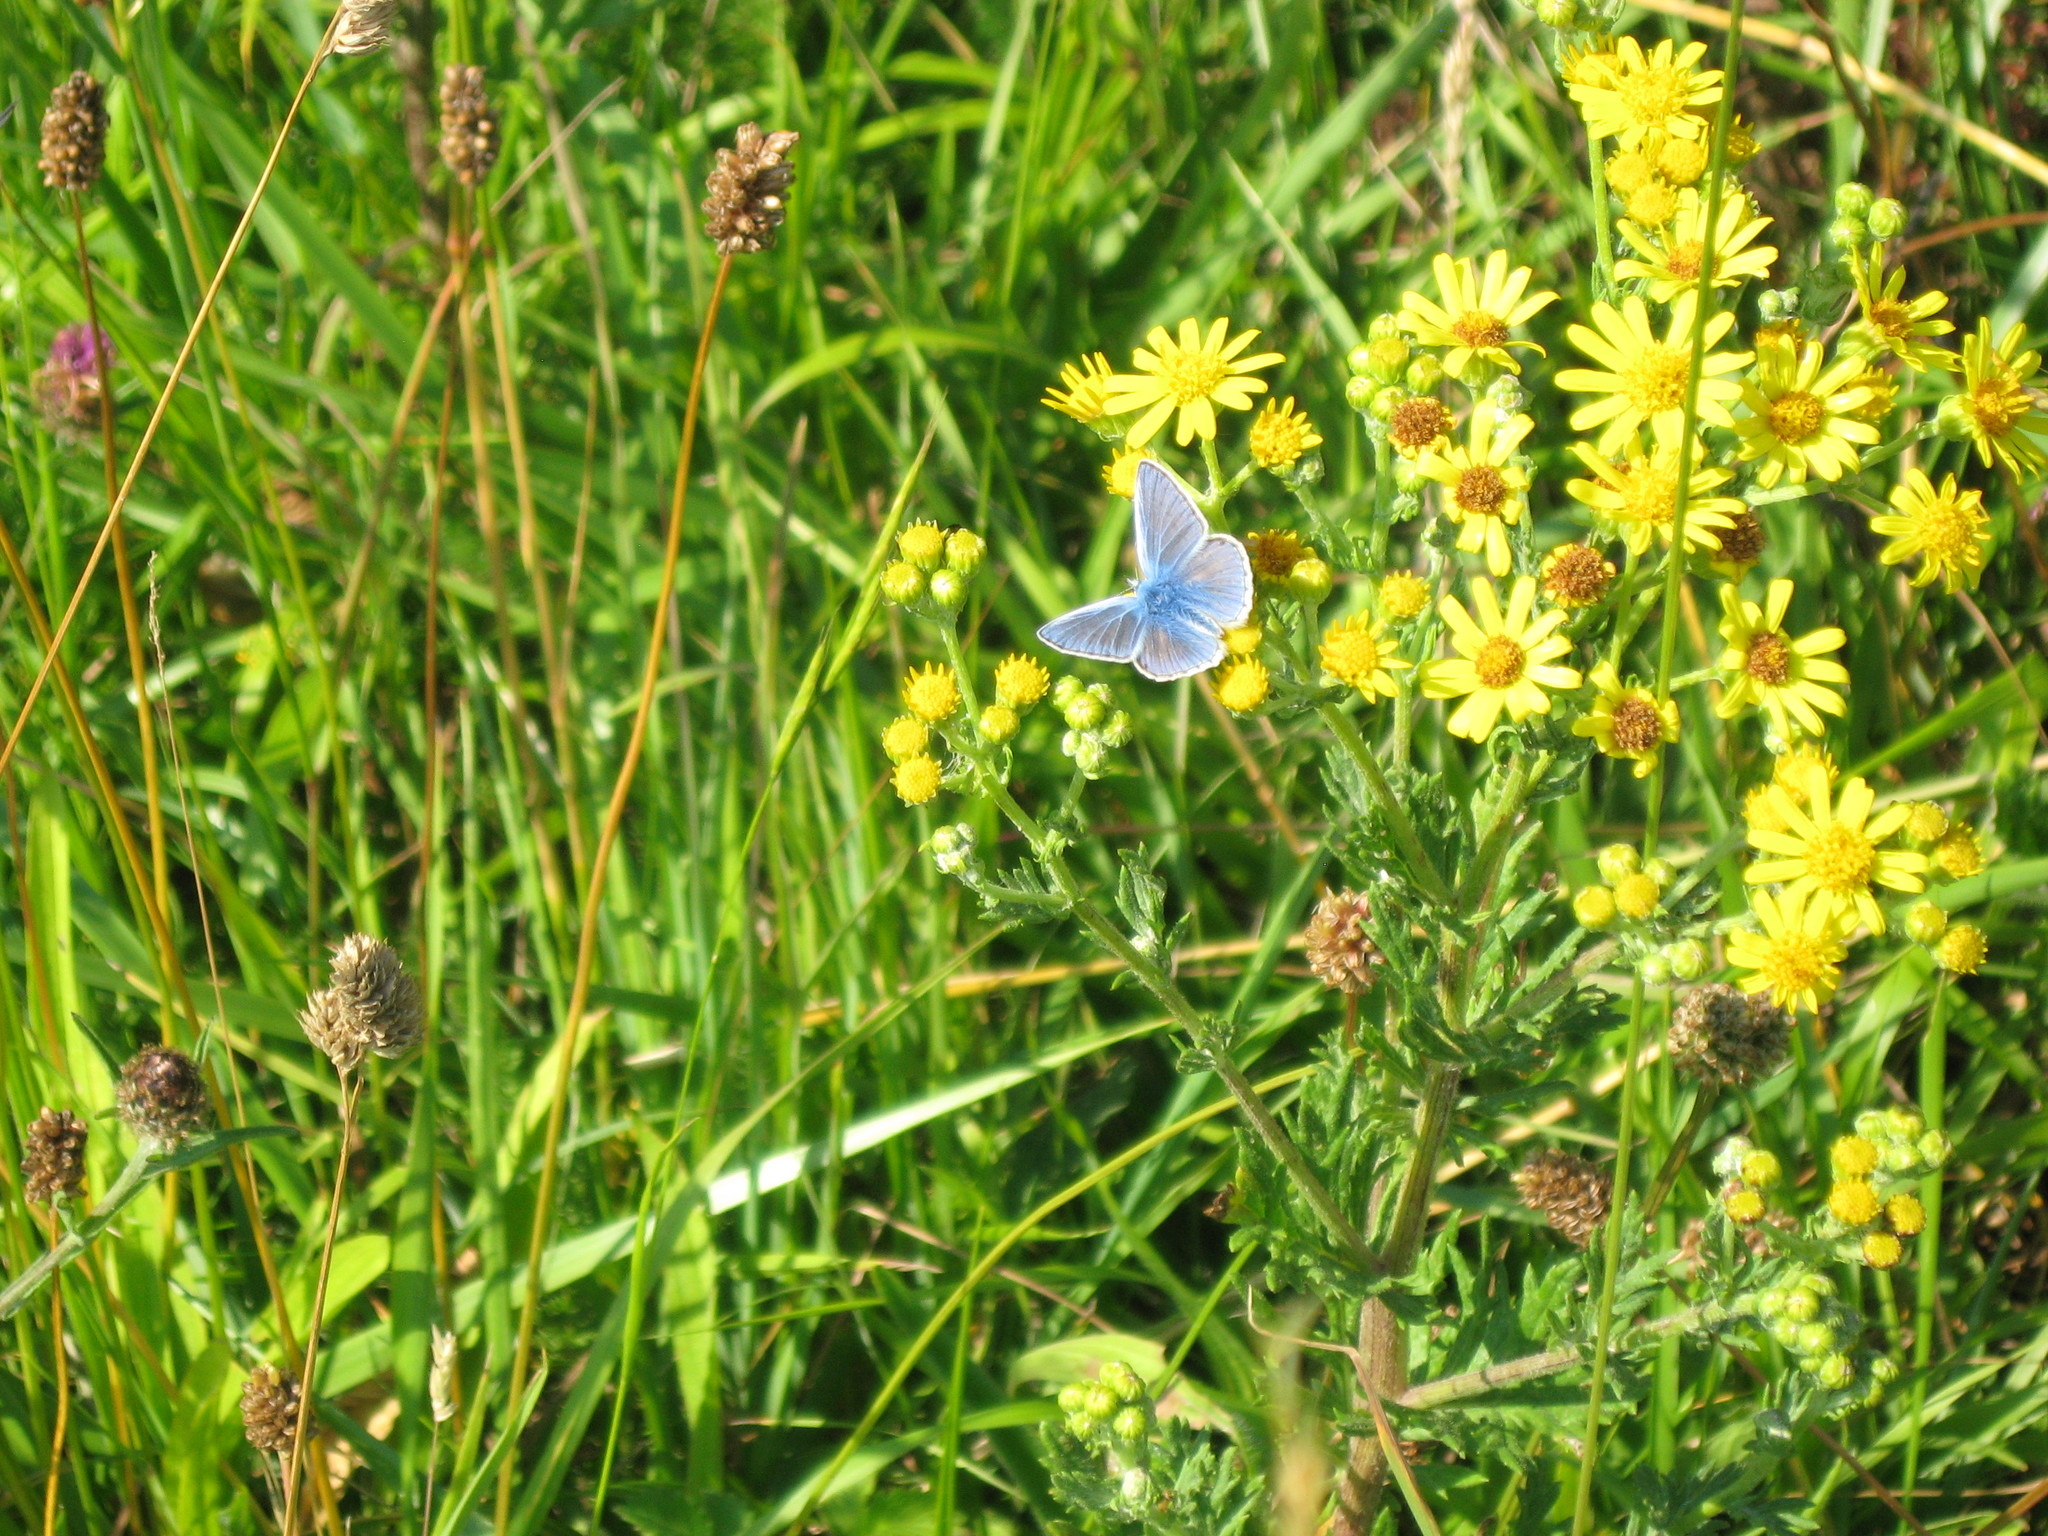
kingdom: Animalia
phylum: Arthropoda
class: Insecta
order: Lepidoptera
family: Lycaenidae
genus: Polyommatus
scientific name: Polyommatus icarus
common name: Common blue
